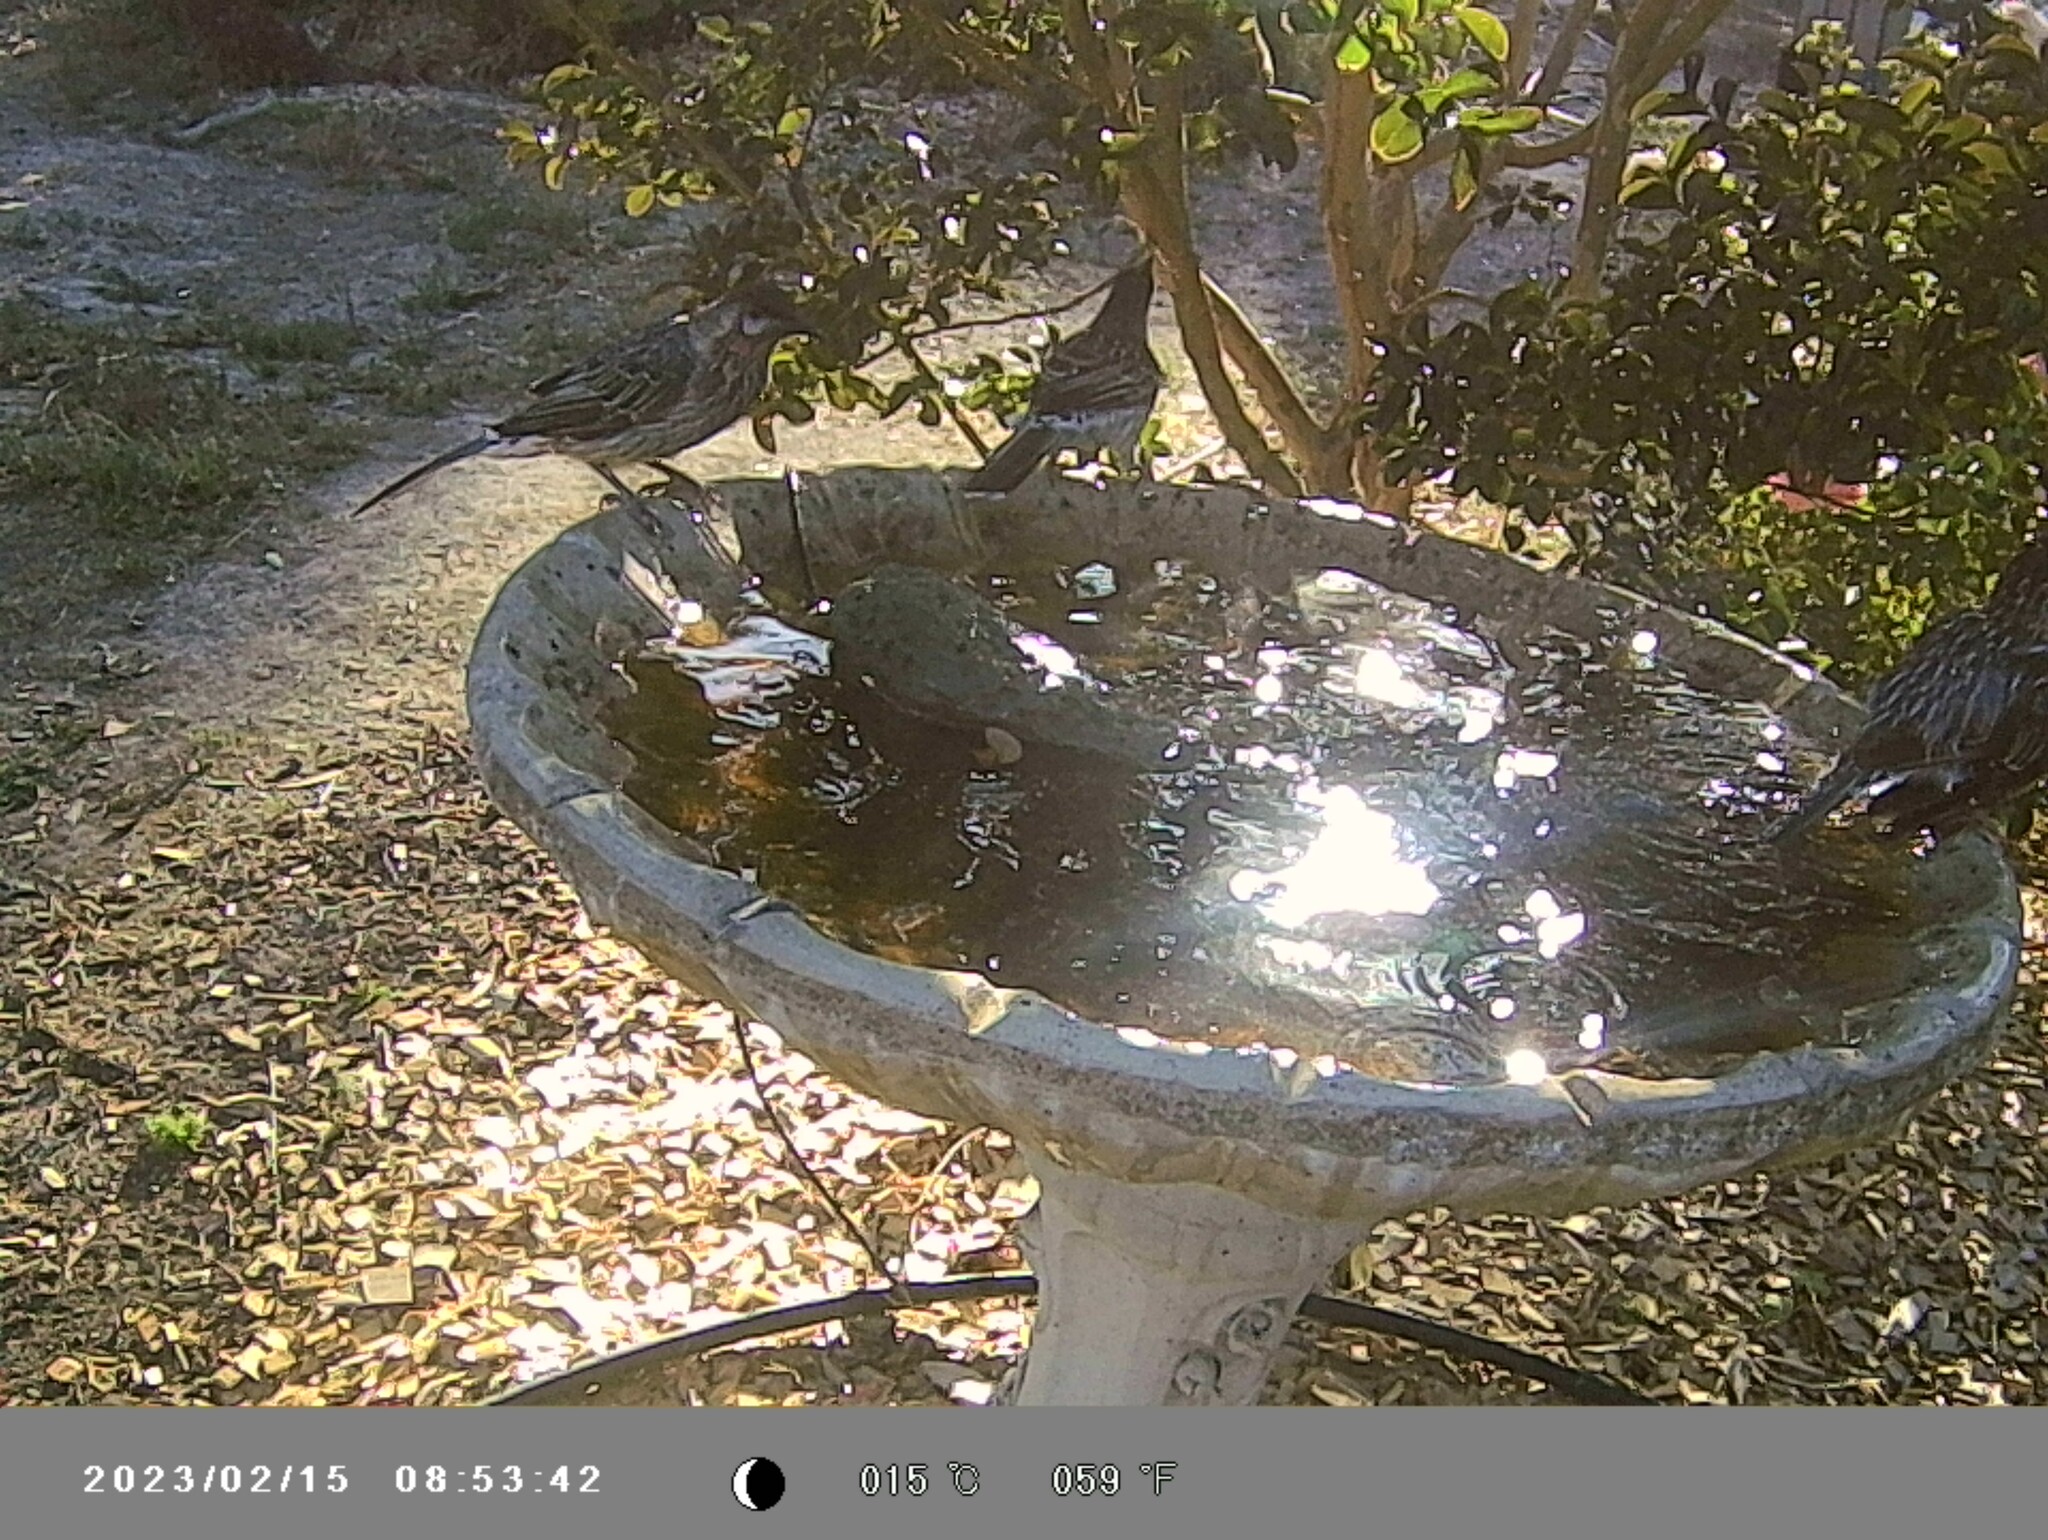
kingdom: Animalia
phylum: Chordata
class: Aves
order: Passeriformes
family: Meliphagidae
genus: Anthochaera
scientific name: Anthochaera carunculata
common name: Red wattlebird
